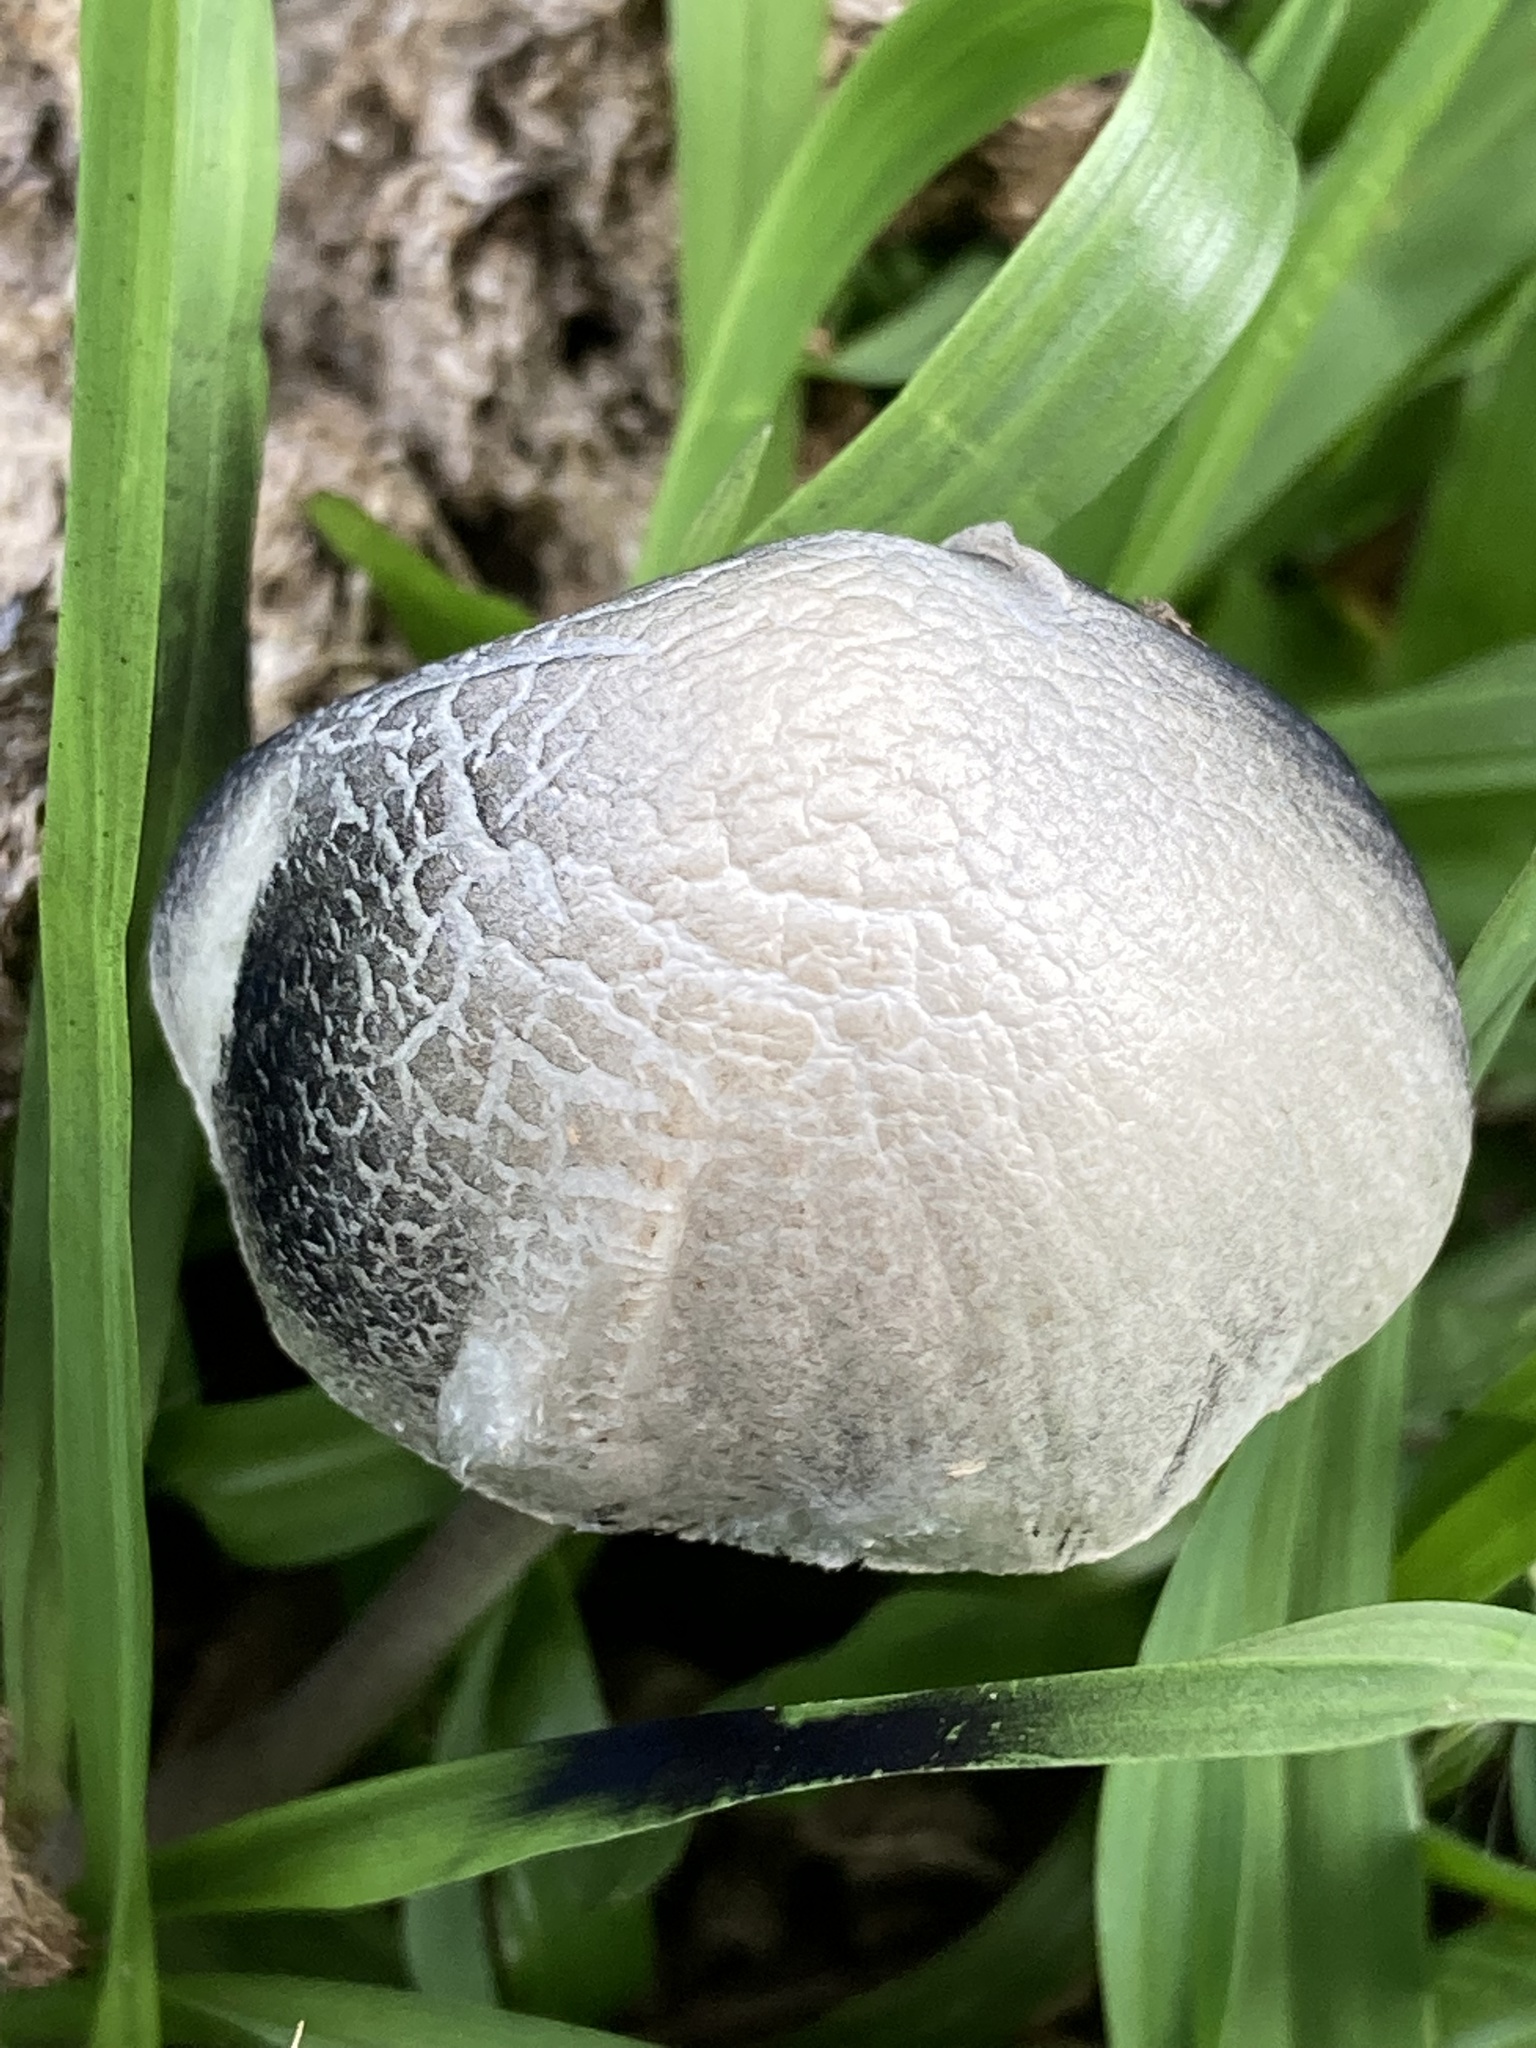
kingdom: Fungi
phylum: Basidiomycota
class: Agaricomycetes
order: Agaricales
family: Bolbitiaceae
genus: Panaeolus
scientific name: Panaeolus cyanescens
